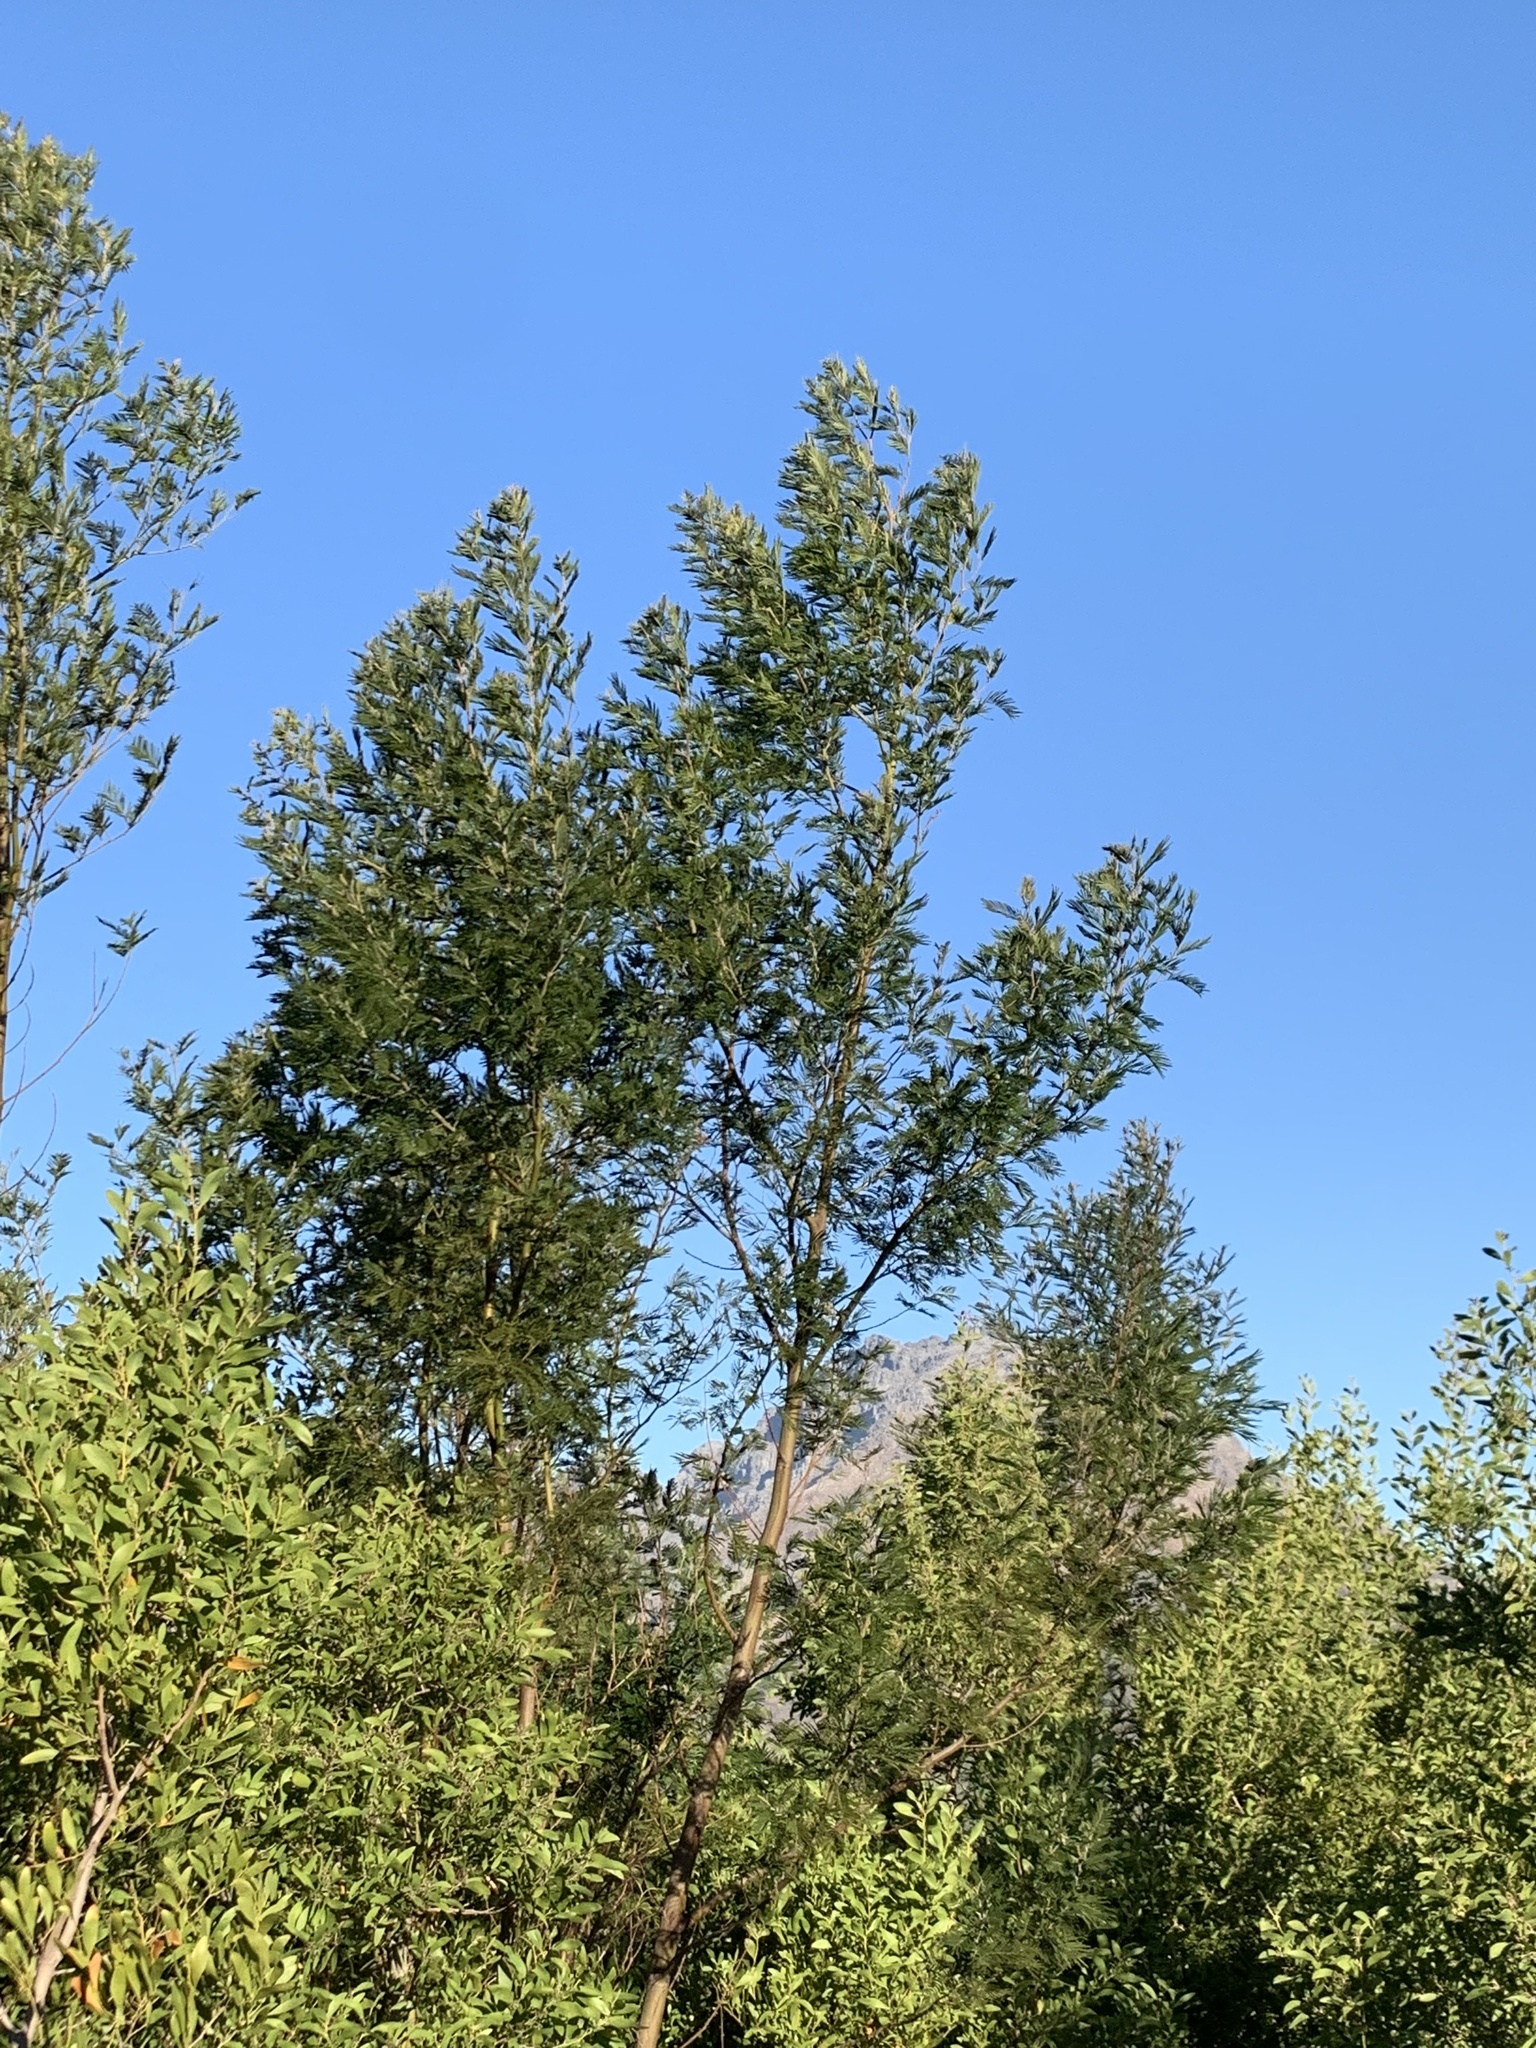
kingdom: Plantae
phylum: Tracheophyta
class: Magnoliopsida
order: Fabales
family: Fabaceae
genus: Acacia
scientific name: Acacia mearnsii
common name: Black wattle
